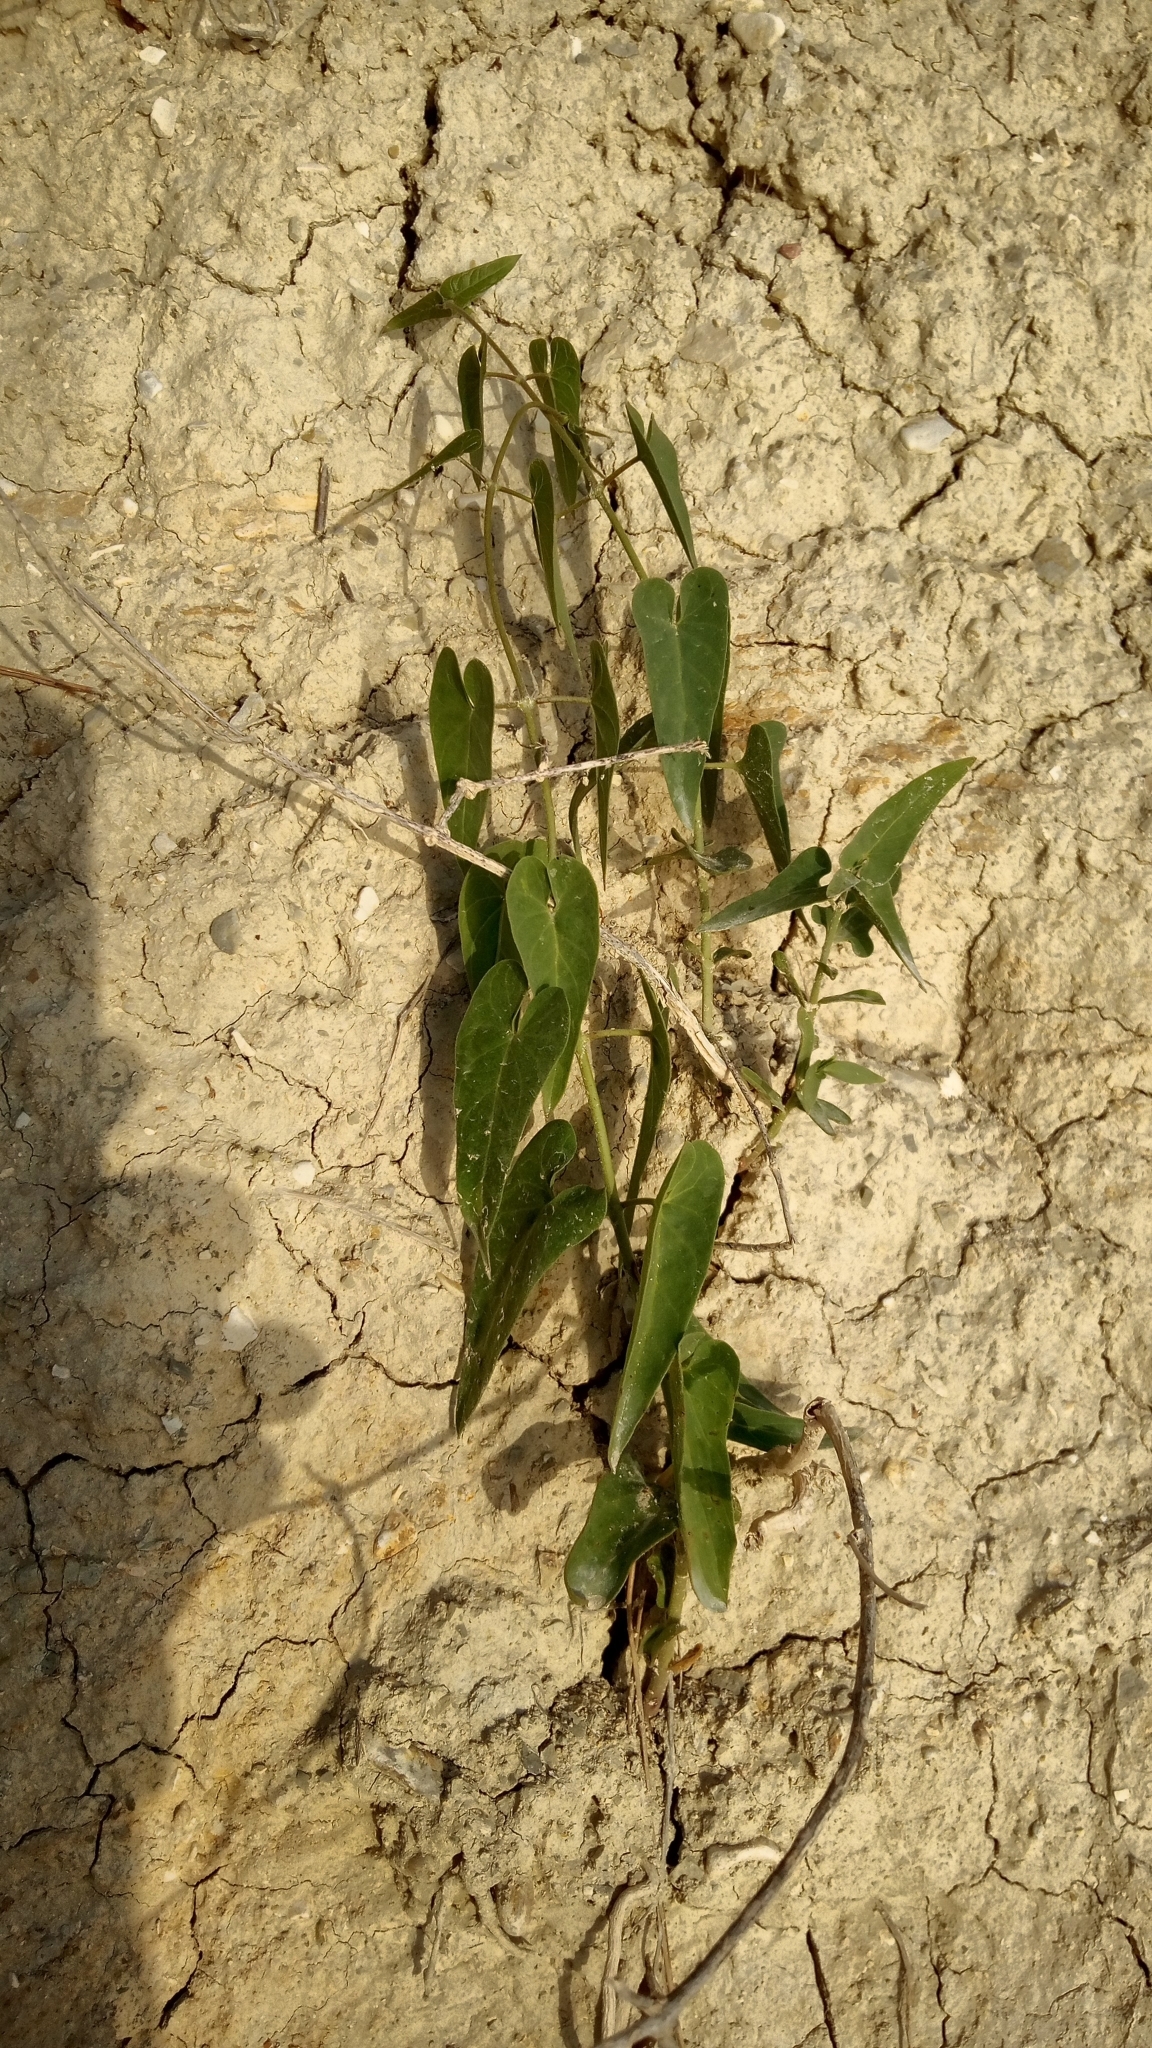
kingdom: Plantae
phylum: Tracheophyta
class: Magnoliopsida
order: Gentianales
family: Apocynaceae
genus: Cynanchum
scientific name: Cynanchum acutum
